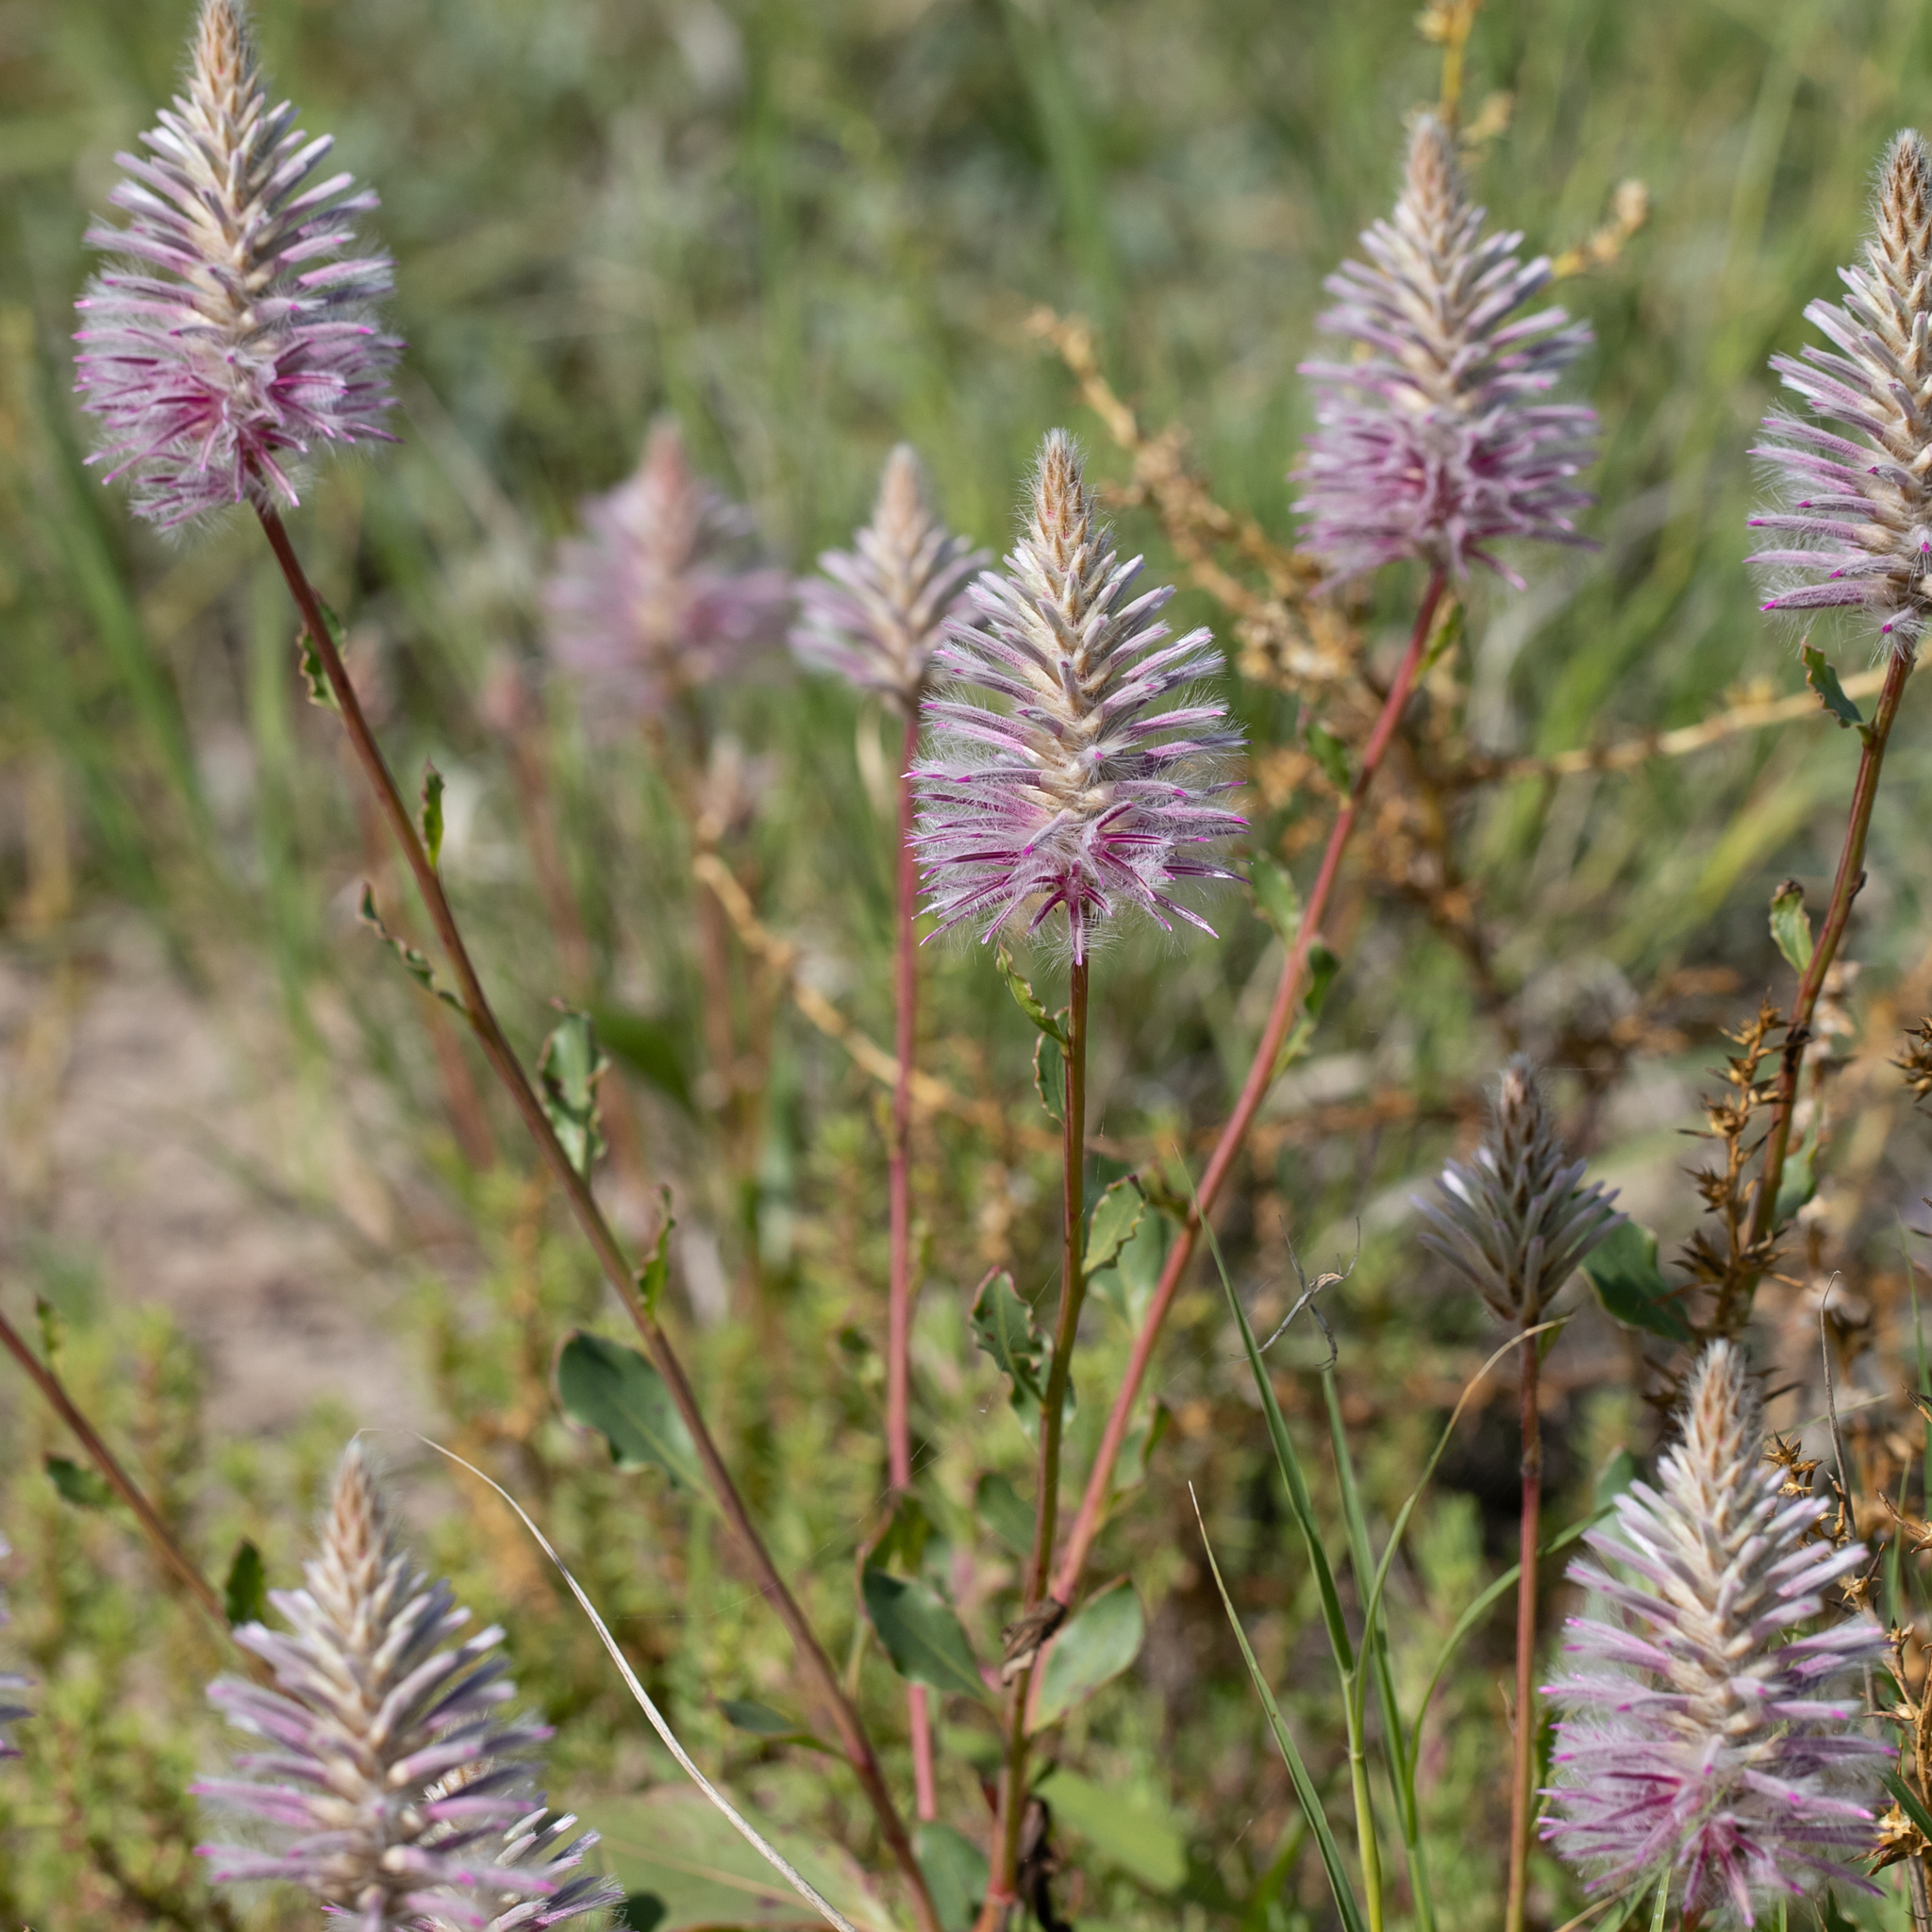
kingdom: Plantae
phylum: Tracheophyta
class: Magnoliopsida
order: Caryophyllales
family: Amaranthaceae
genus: Ptilotus
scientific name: Ptilotus exaltatus
